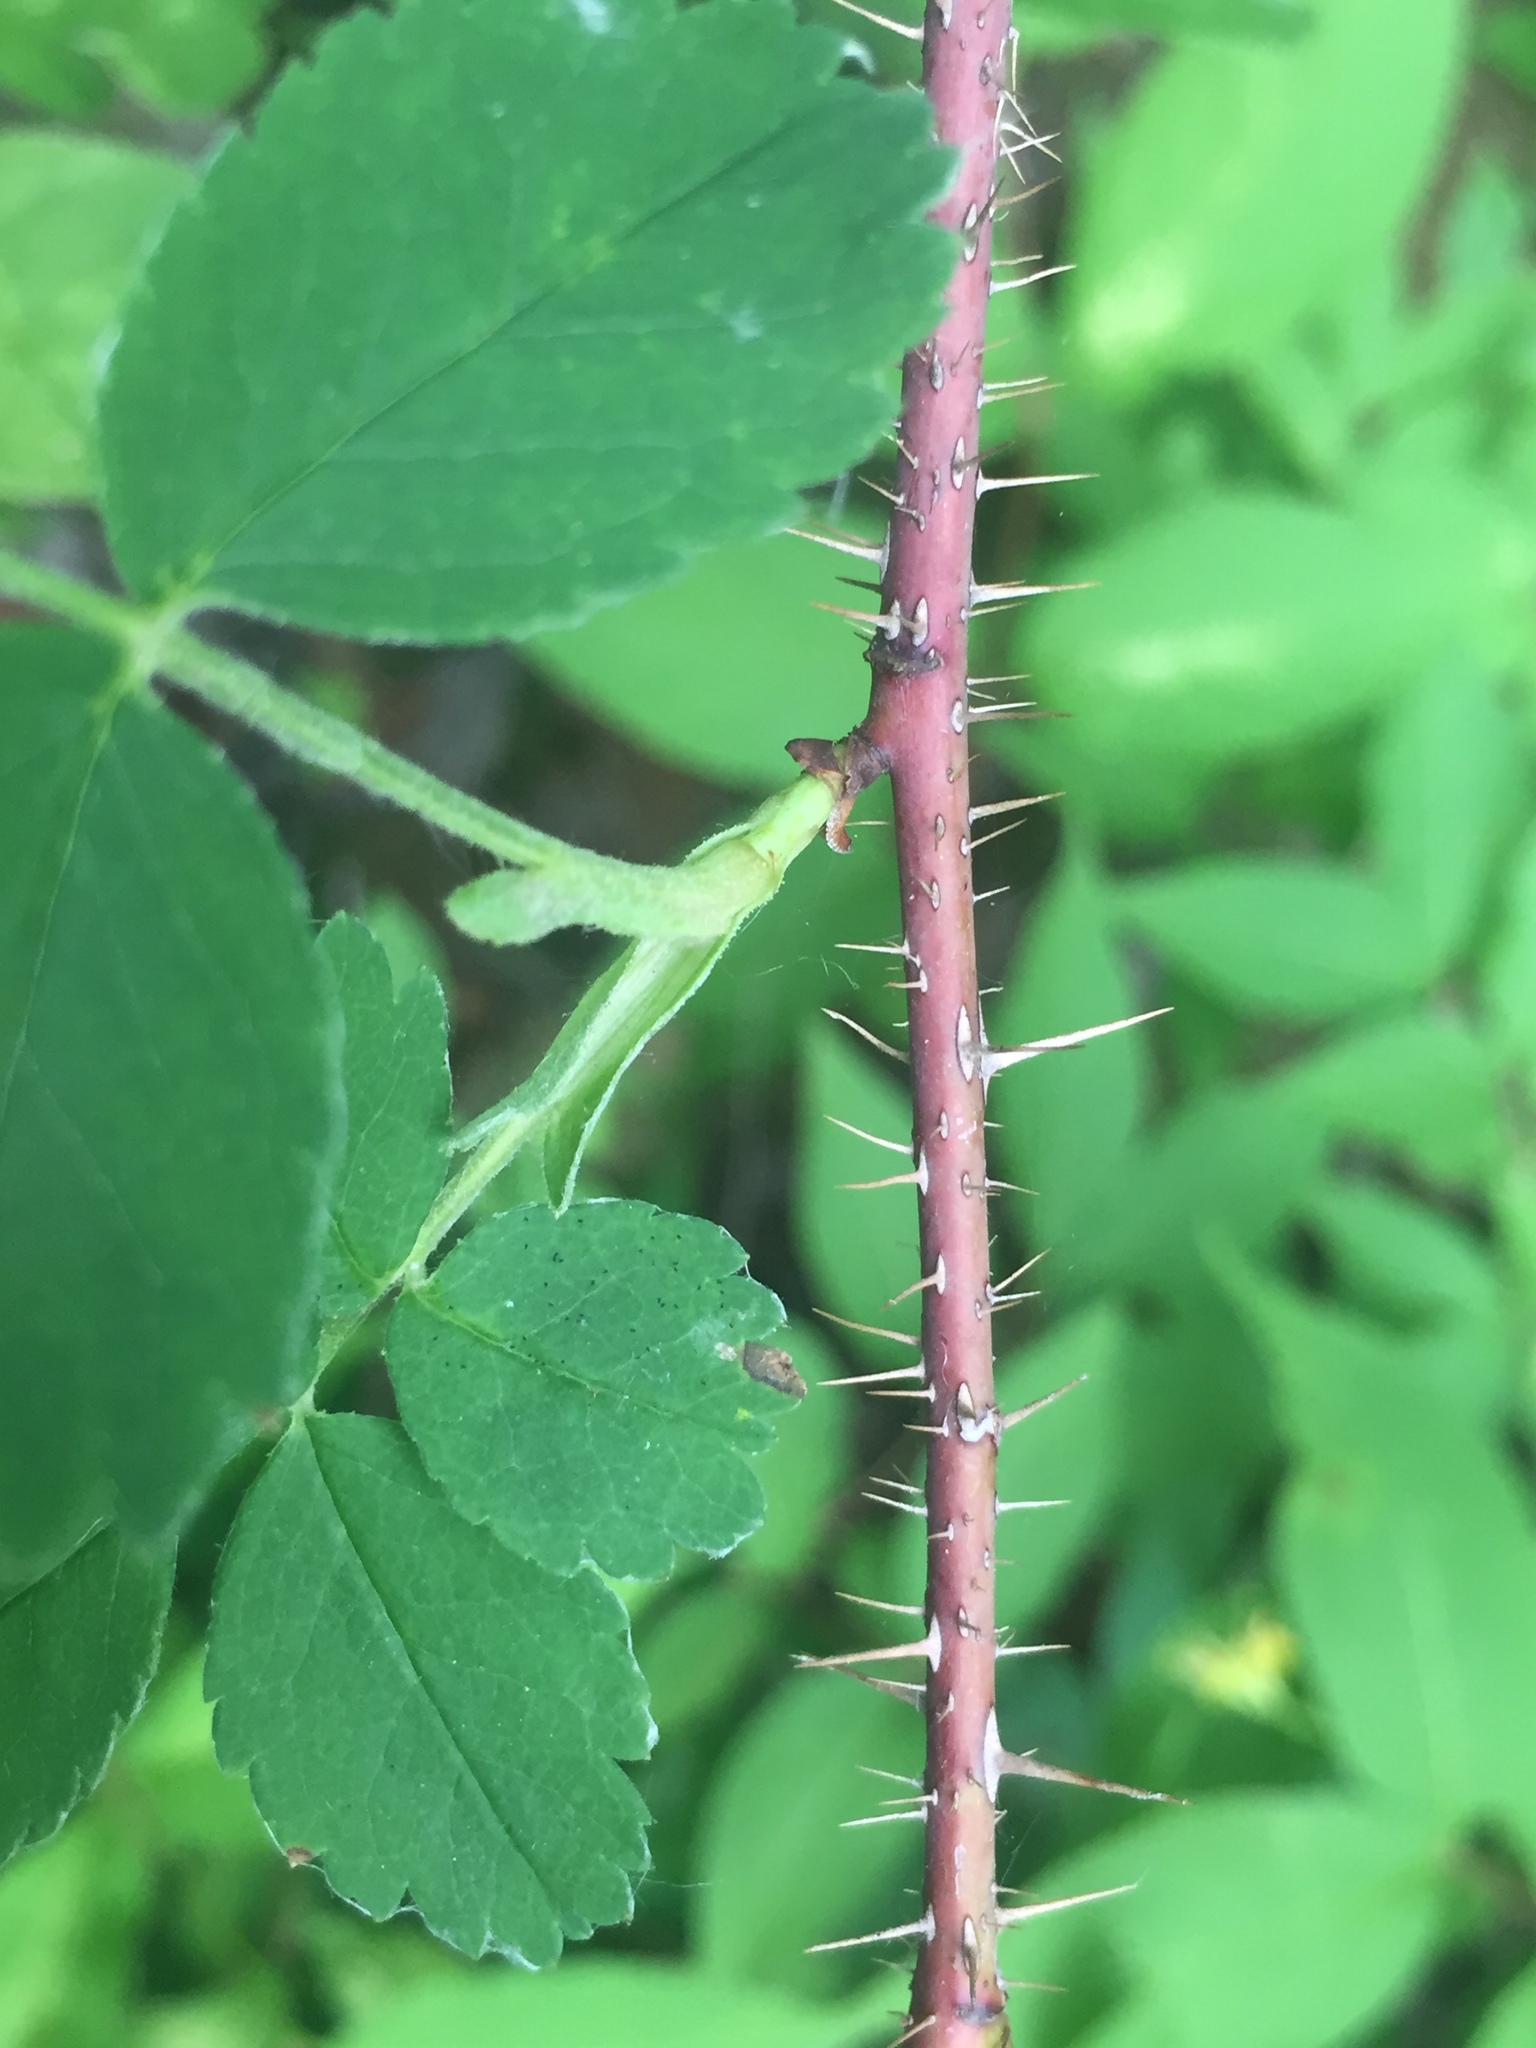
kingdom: Plantae
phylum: Tracheophyta
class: Magnoliopsida
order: Rosales
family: Rosaceae
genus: Rosa
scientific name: Rosa woodsii
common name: Woods's rose
